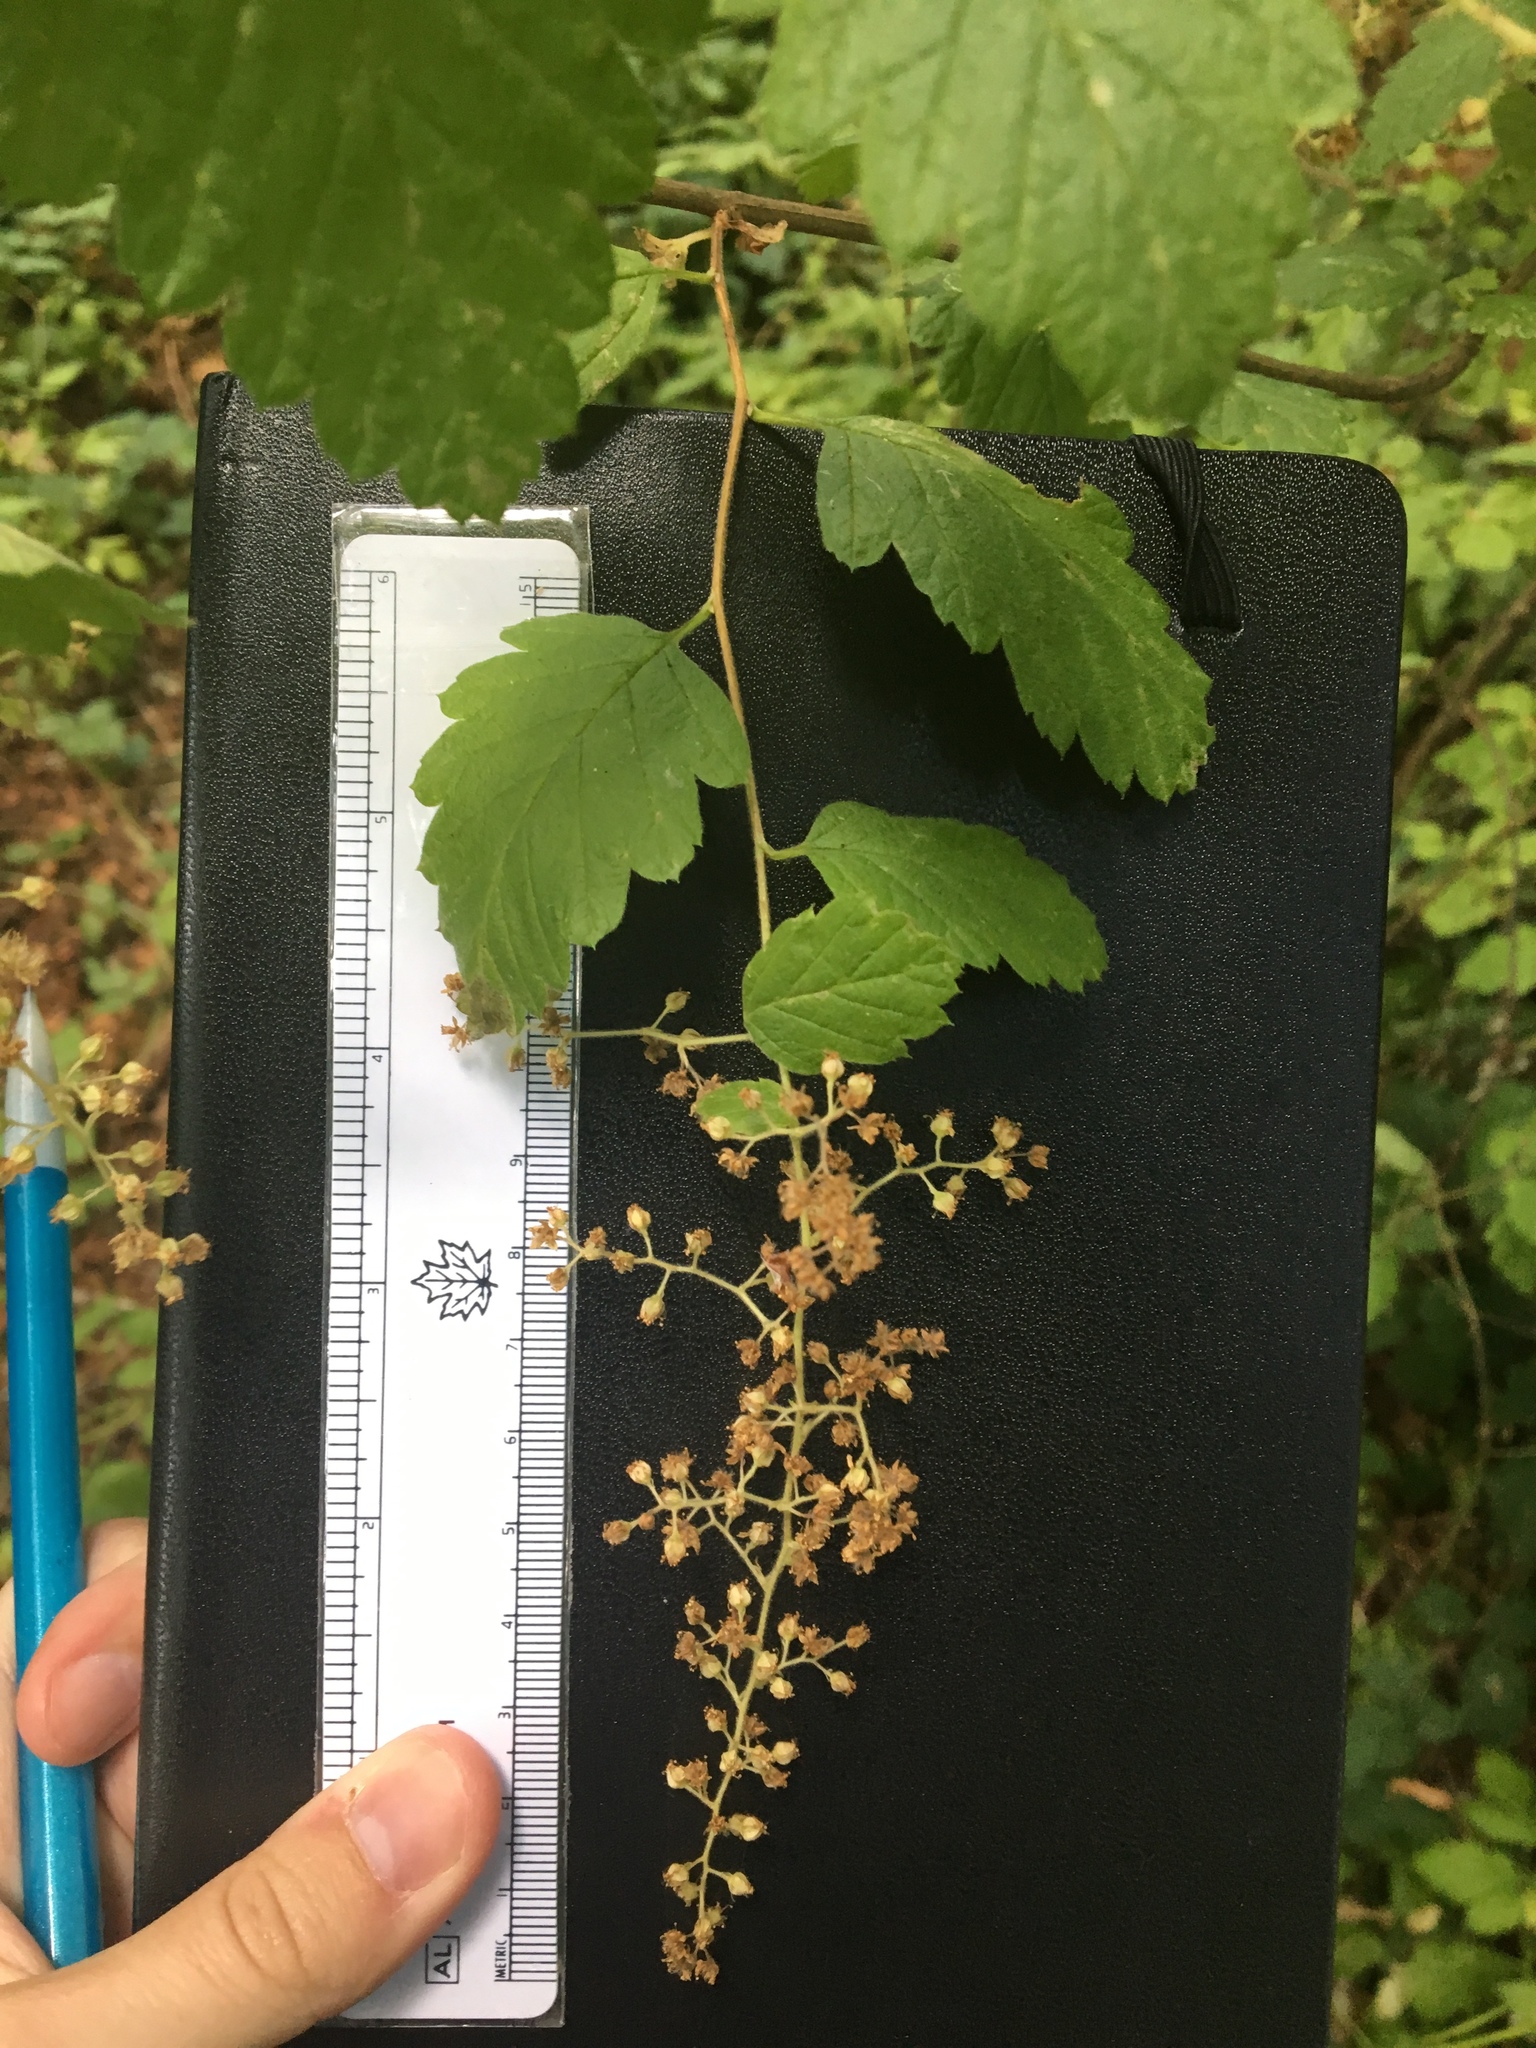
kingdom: Plantae
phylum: Tracheophyta
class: Magnoliopsida
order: Rosales
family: Rosaceae
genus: Holodiscus
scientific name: Holodiscus discolor
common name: Oceanspray
